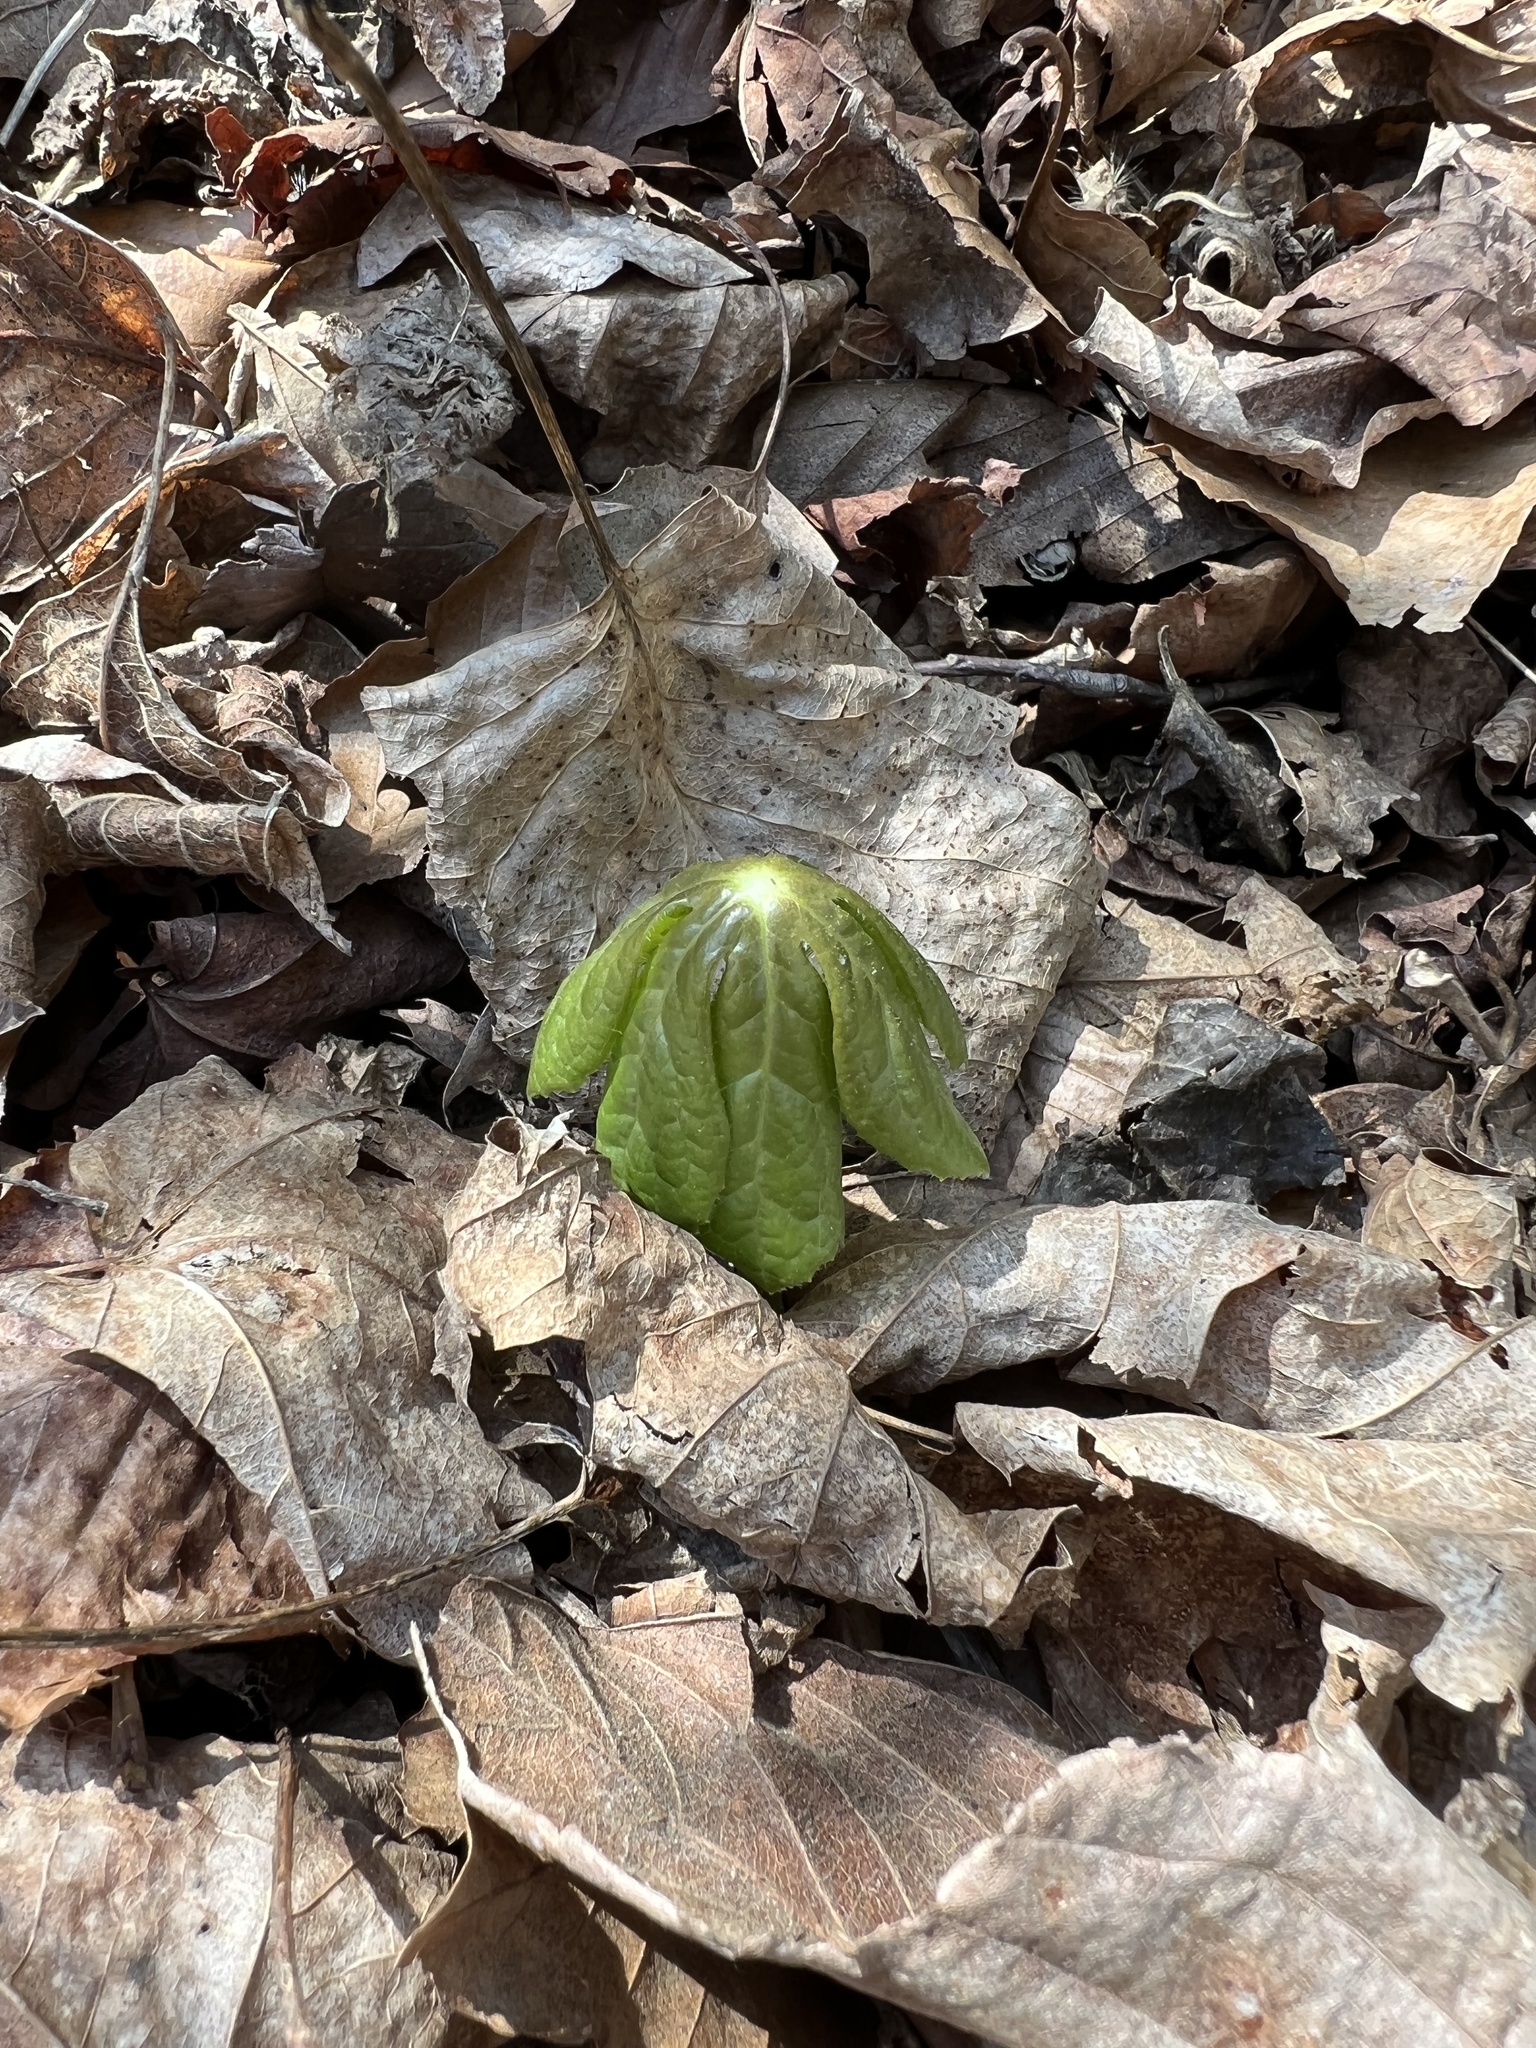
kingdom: Plantae
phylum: Tracheophyta
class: Magnoliopsida
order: Ranunculales
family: Berberidaceae
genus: Podophyllum
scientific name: Podophyllum peltatum
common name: Wild mandrake
